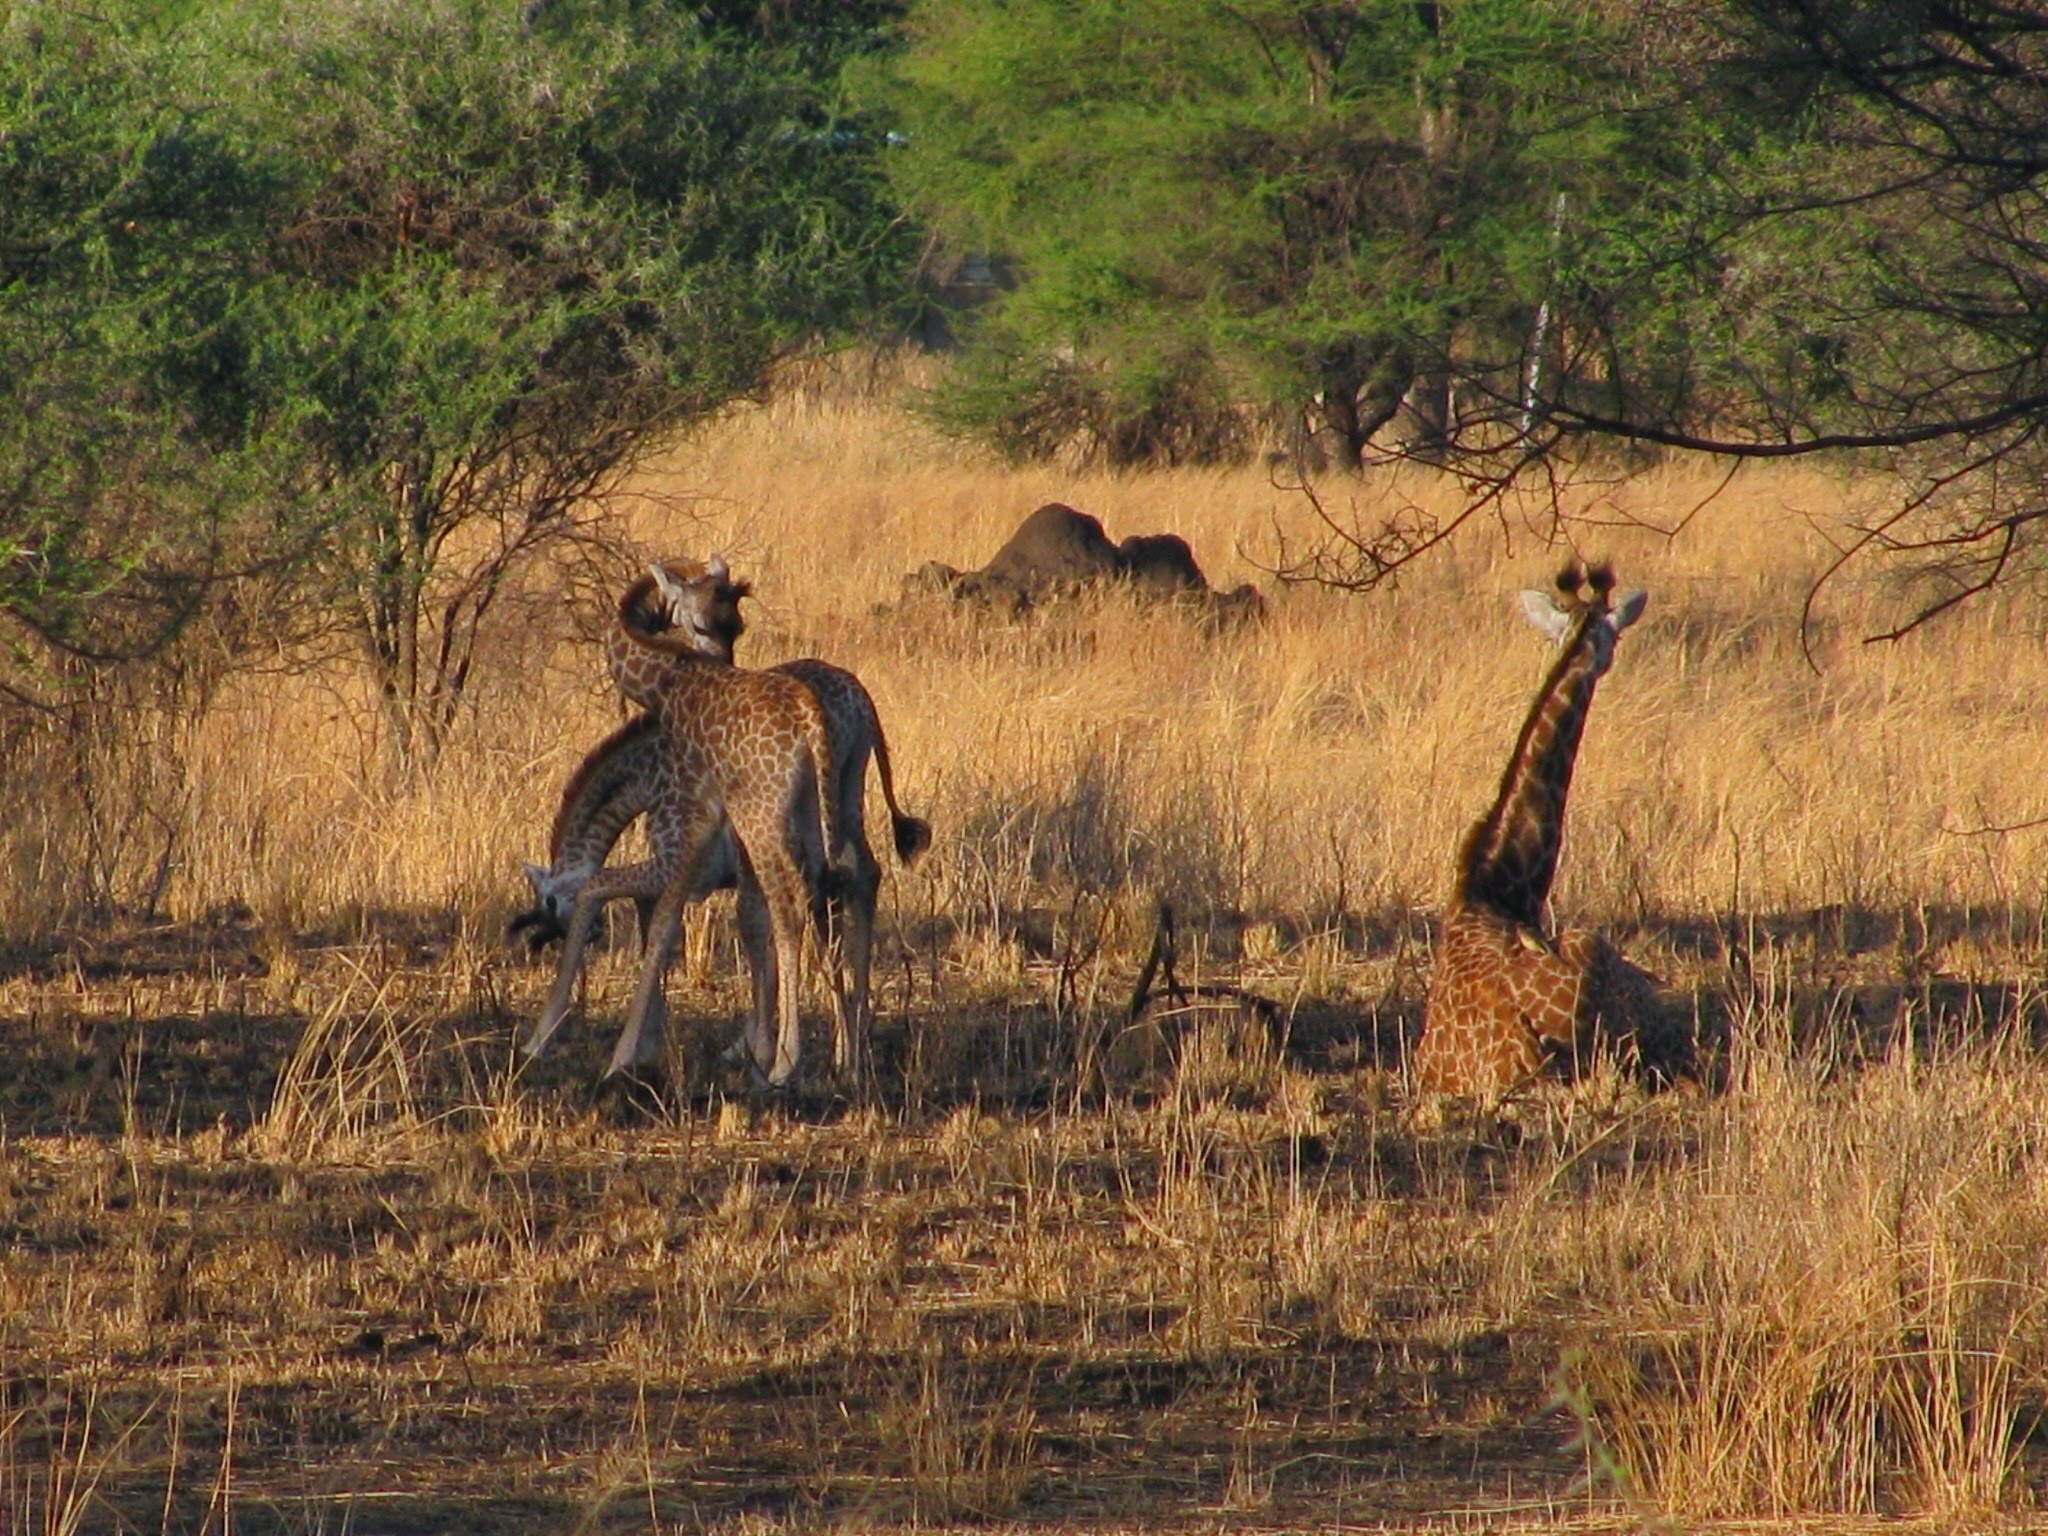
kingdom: Animalia
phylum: Chordata
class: Mammalia
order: Artiodactyla
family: Giraffidae
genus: Giraffa
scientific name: Giraffa tippelskirchi
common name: Masai giraffe
